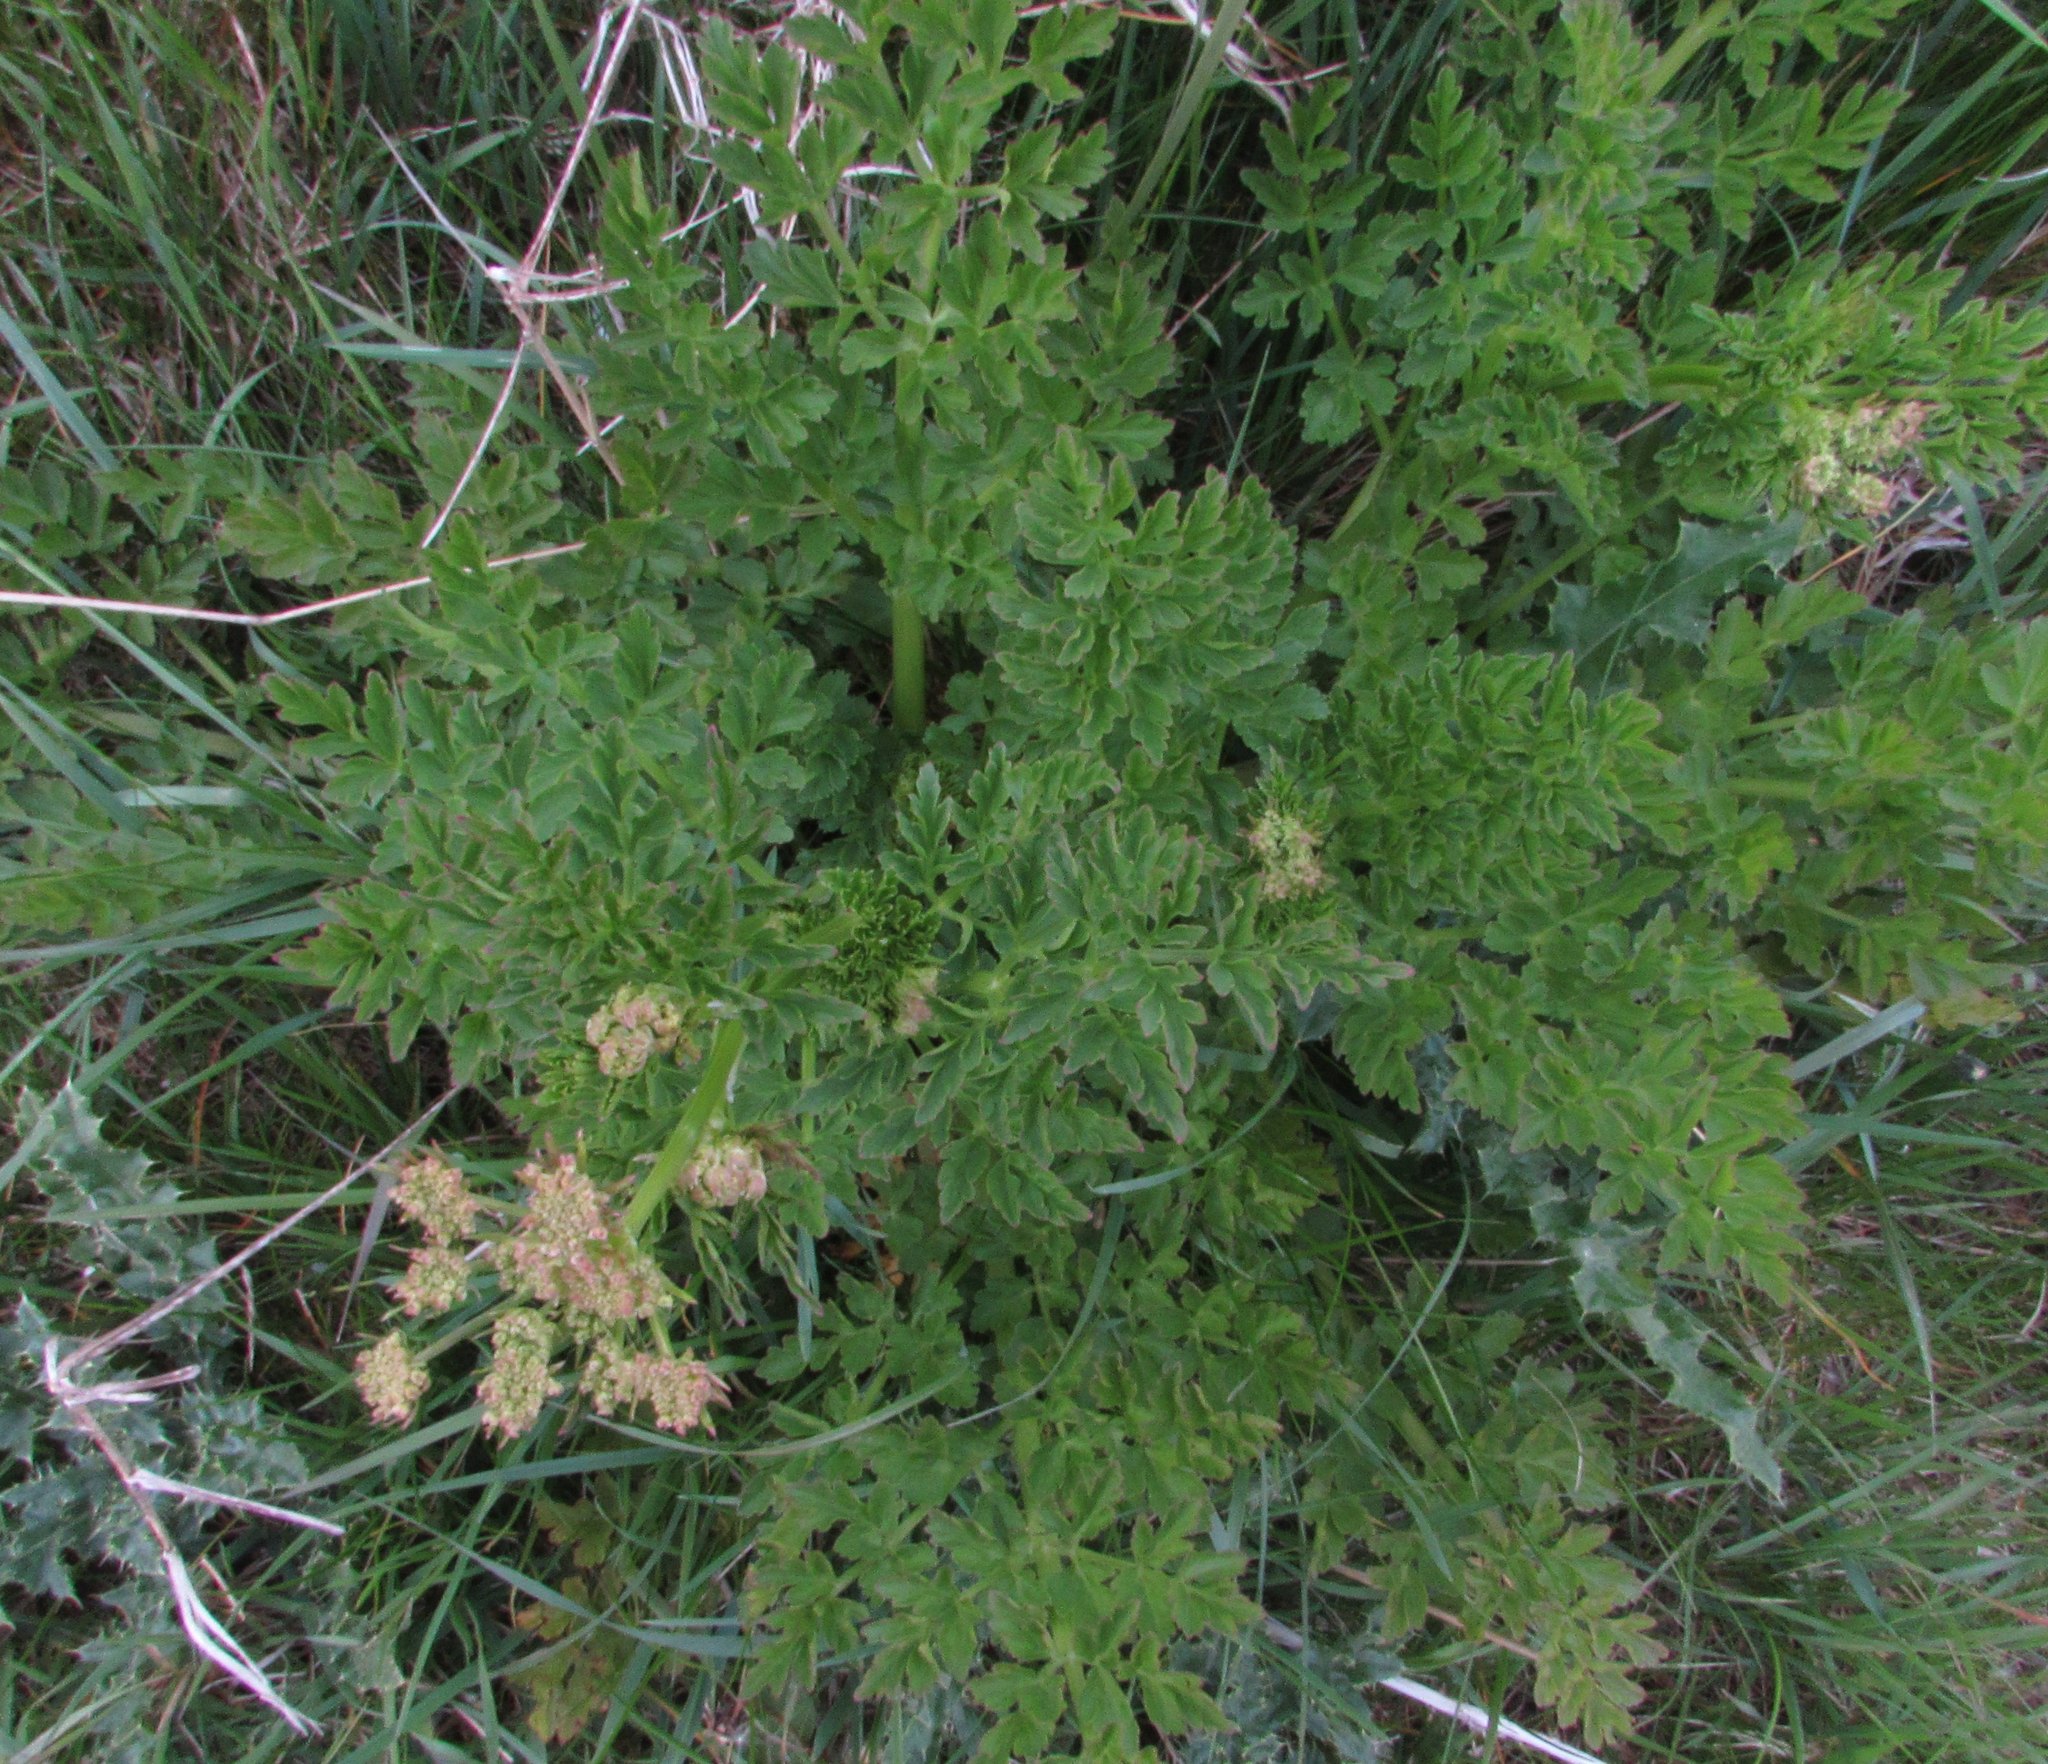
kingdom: Plantae
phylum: Tracheophyta
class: Magnoliopsida
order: Apiales
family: Apiaceae
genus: Oenanthe
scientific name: Oenanthe crocata
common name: Hemlock water-dropwort
